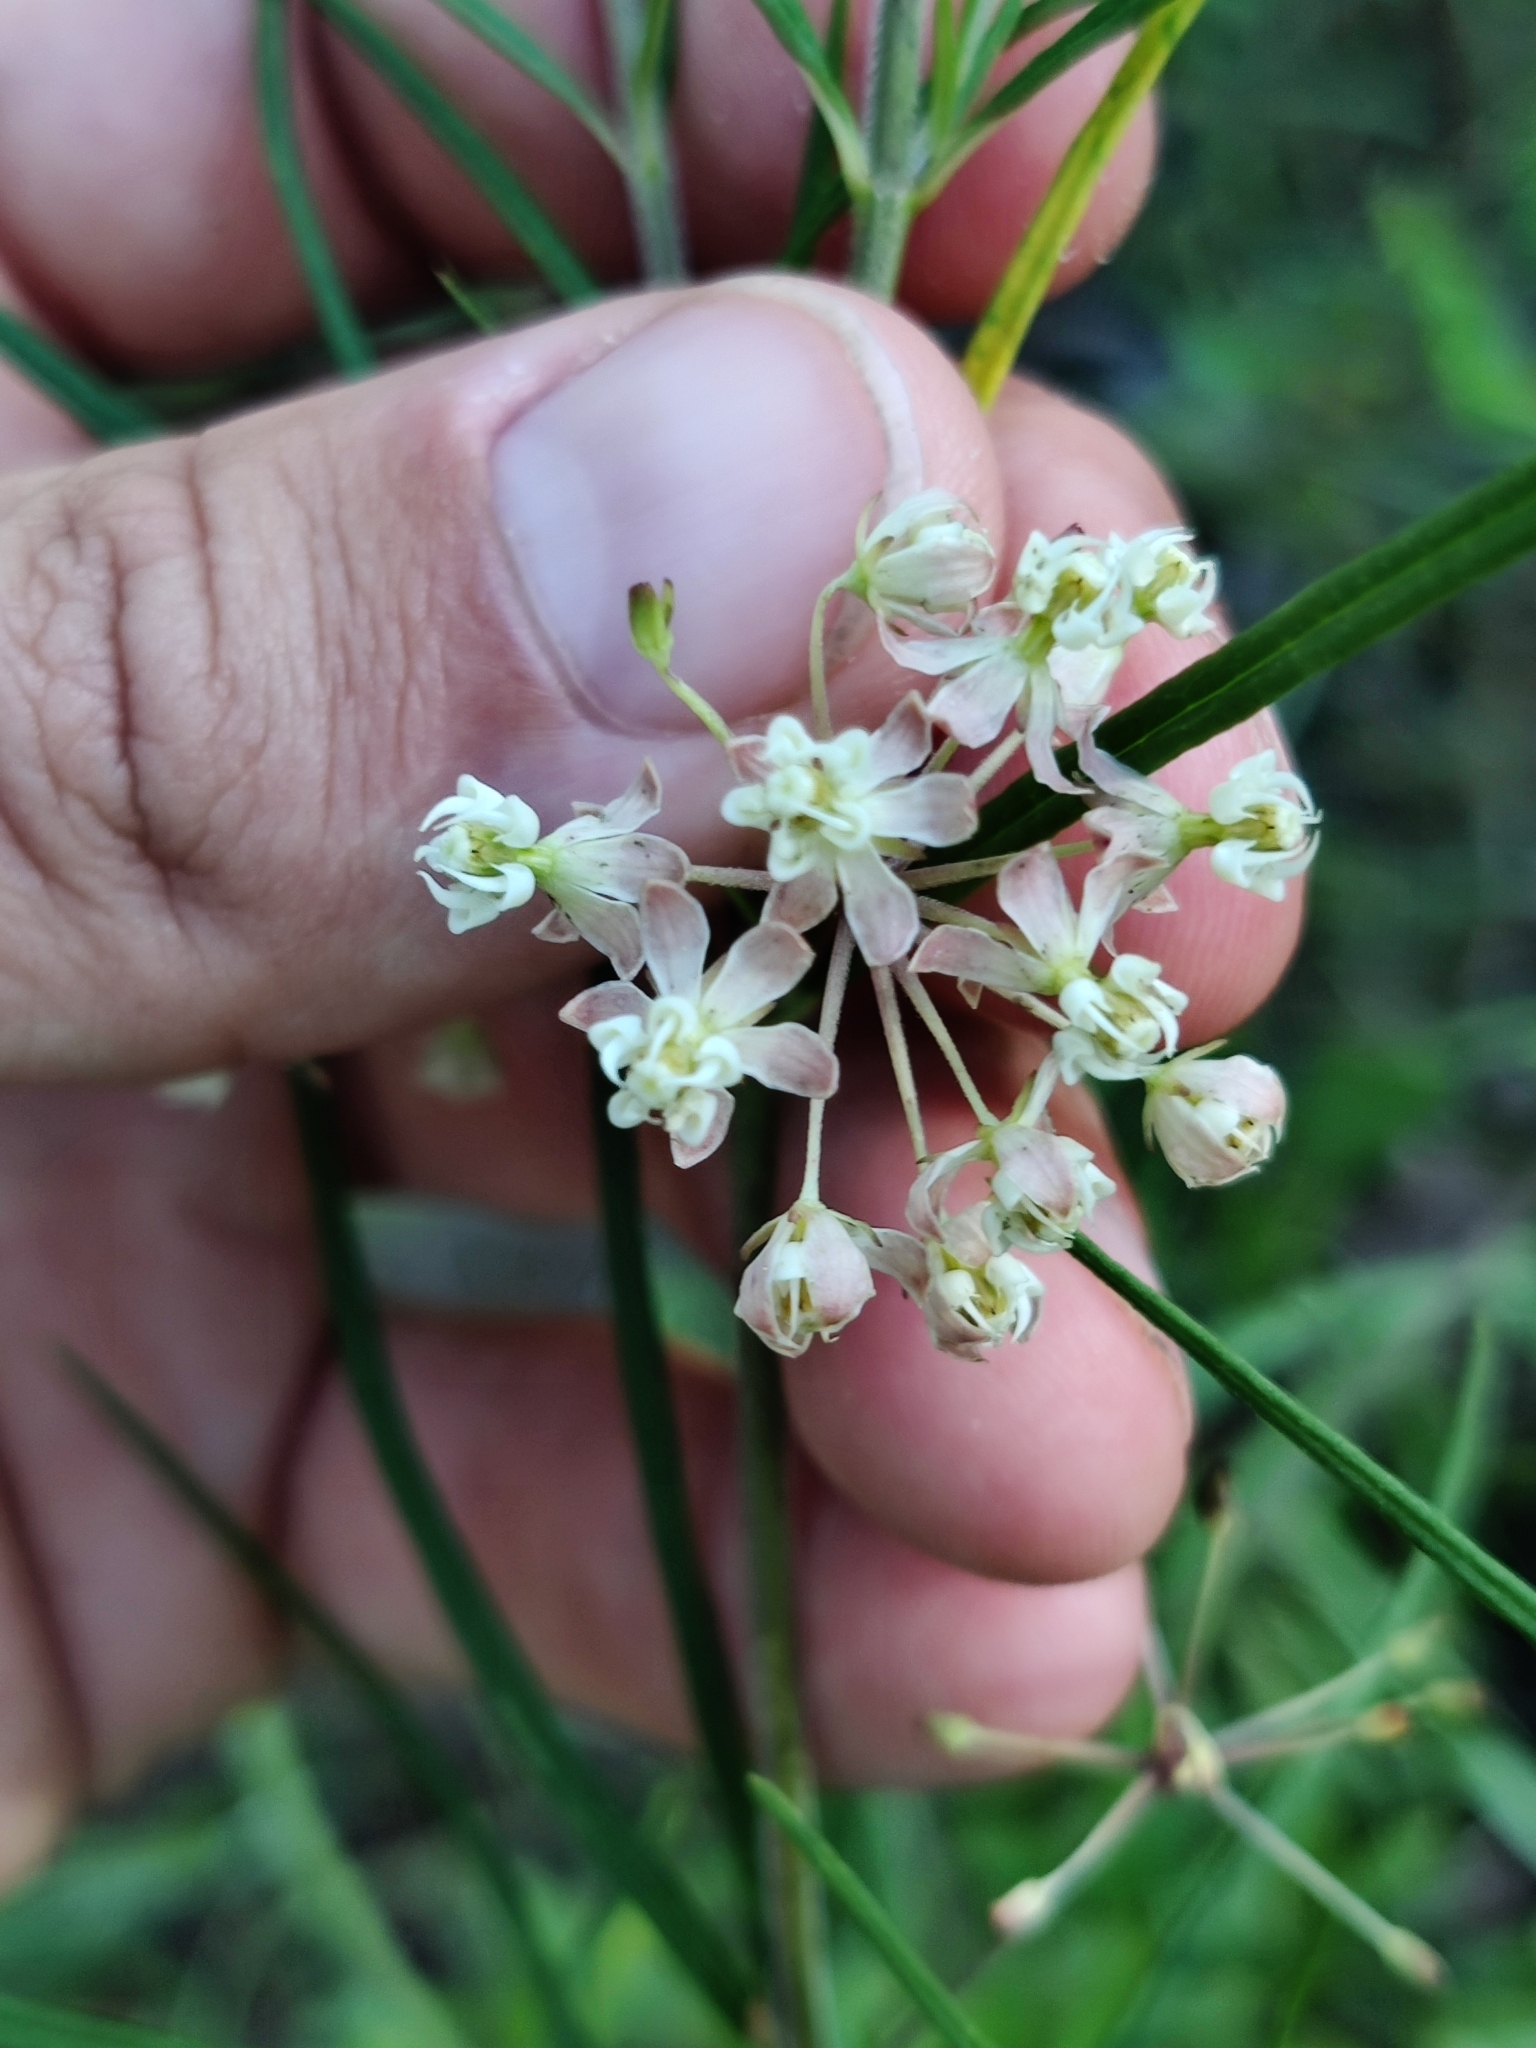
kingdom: Plantae
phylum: Tracheophyta
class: Magnoliopsida
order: Gentianales
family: Apocynaceae
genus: Asclepias
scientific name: Asclepias verticillata
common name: Eastern whorled milkweed
